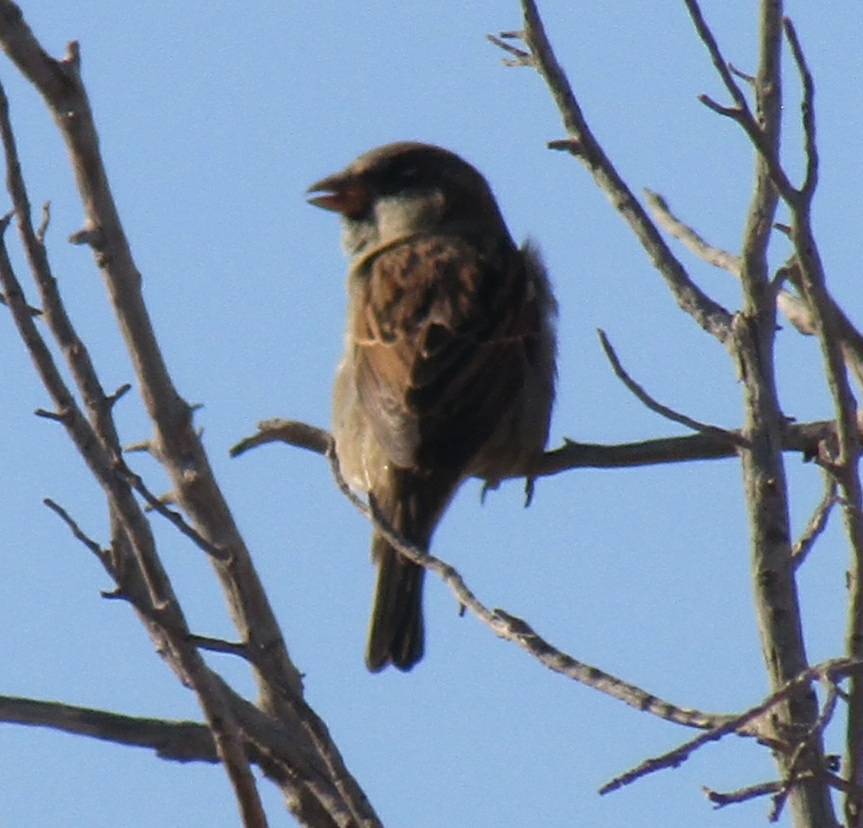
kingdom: Animalia
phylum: Chordata
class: Aves
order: Passeriformes
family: Passeridae
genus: Passer
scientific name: Passer domesticus
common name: House sparrow
